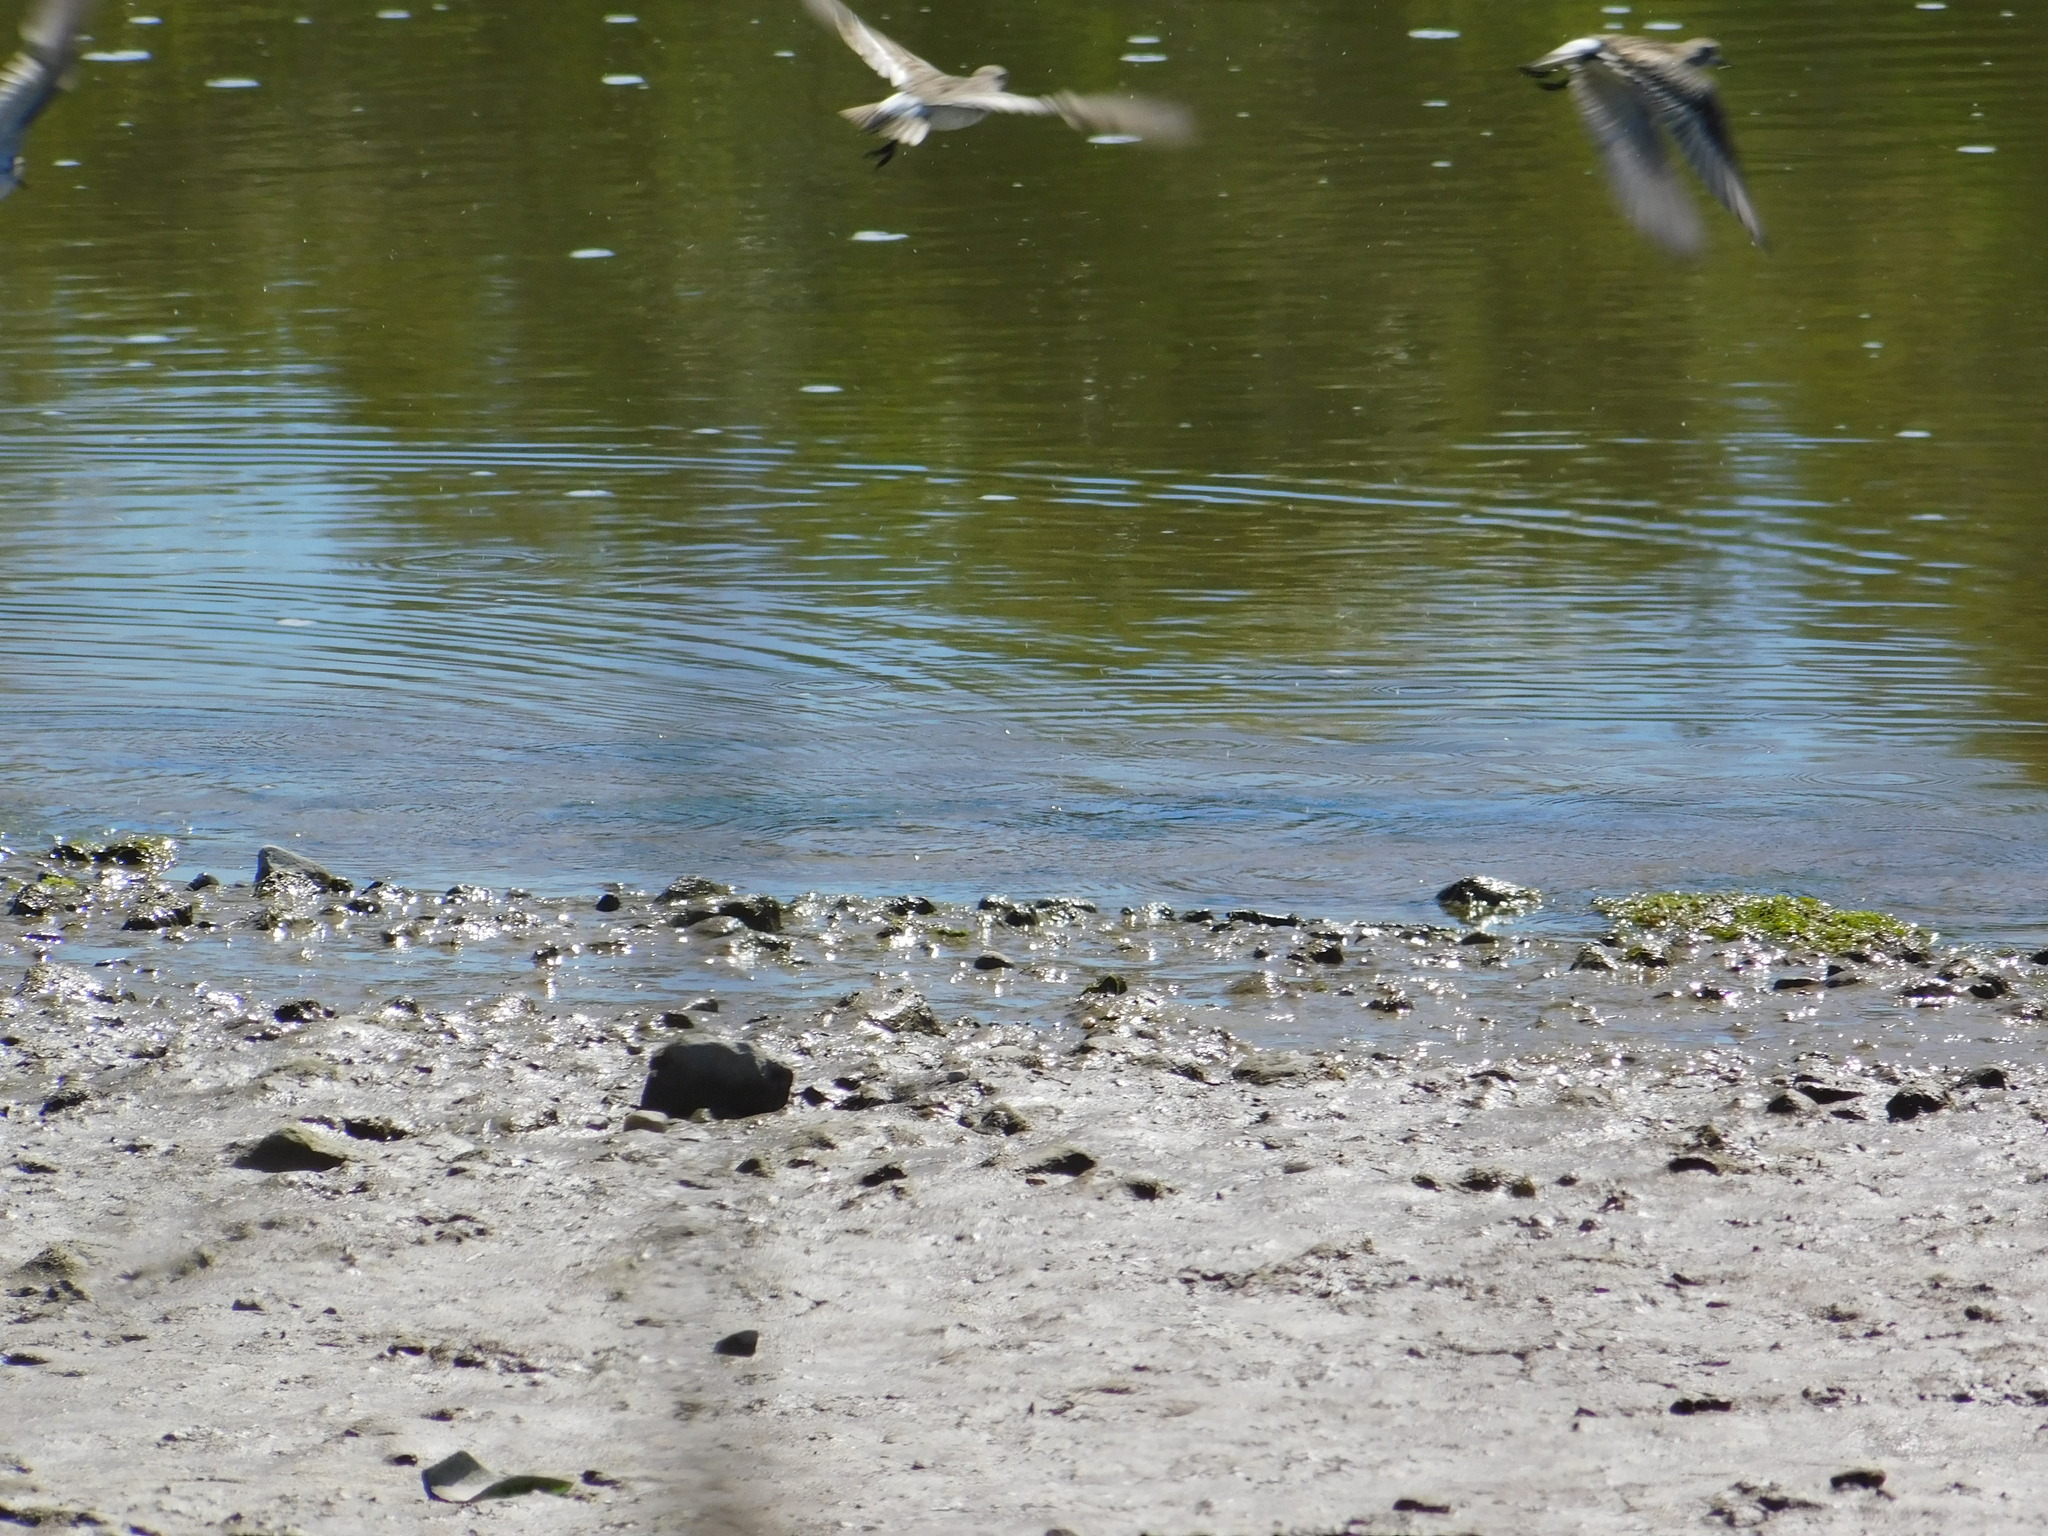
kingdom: Animalia
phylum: Chordata
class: Aves
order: Charadriiformes
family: Scolopacidae
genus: Calidris
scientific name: Calidris fuscicollis
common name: White-rumped sandpiper
